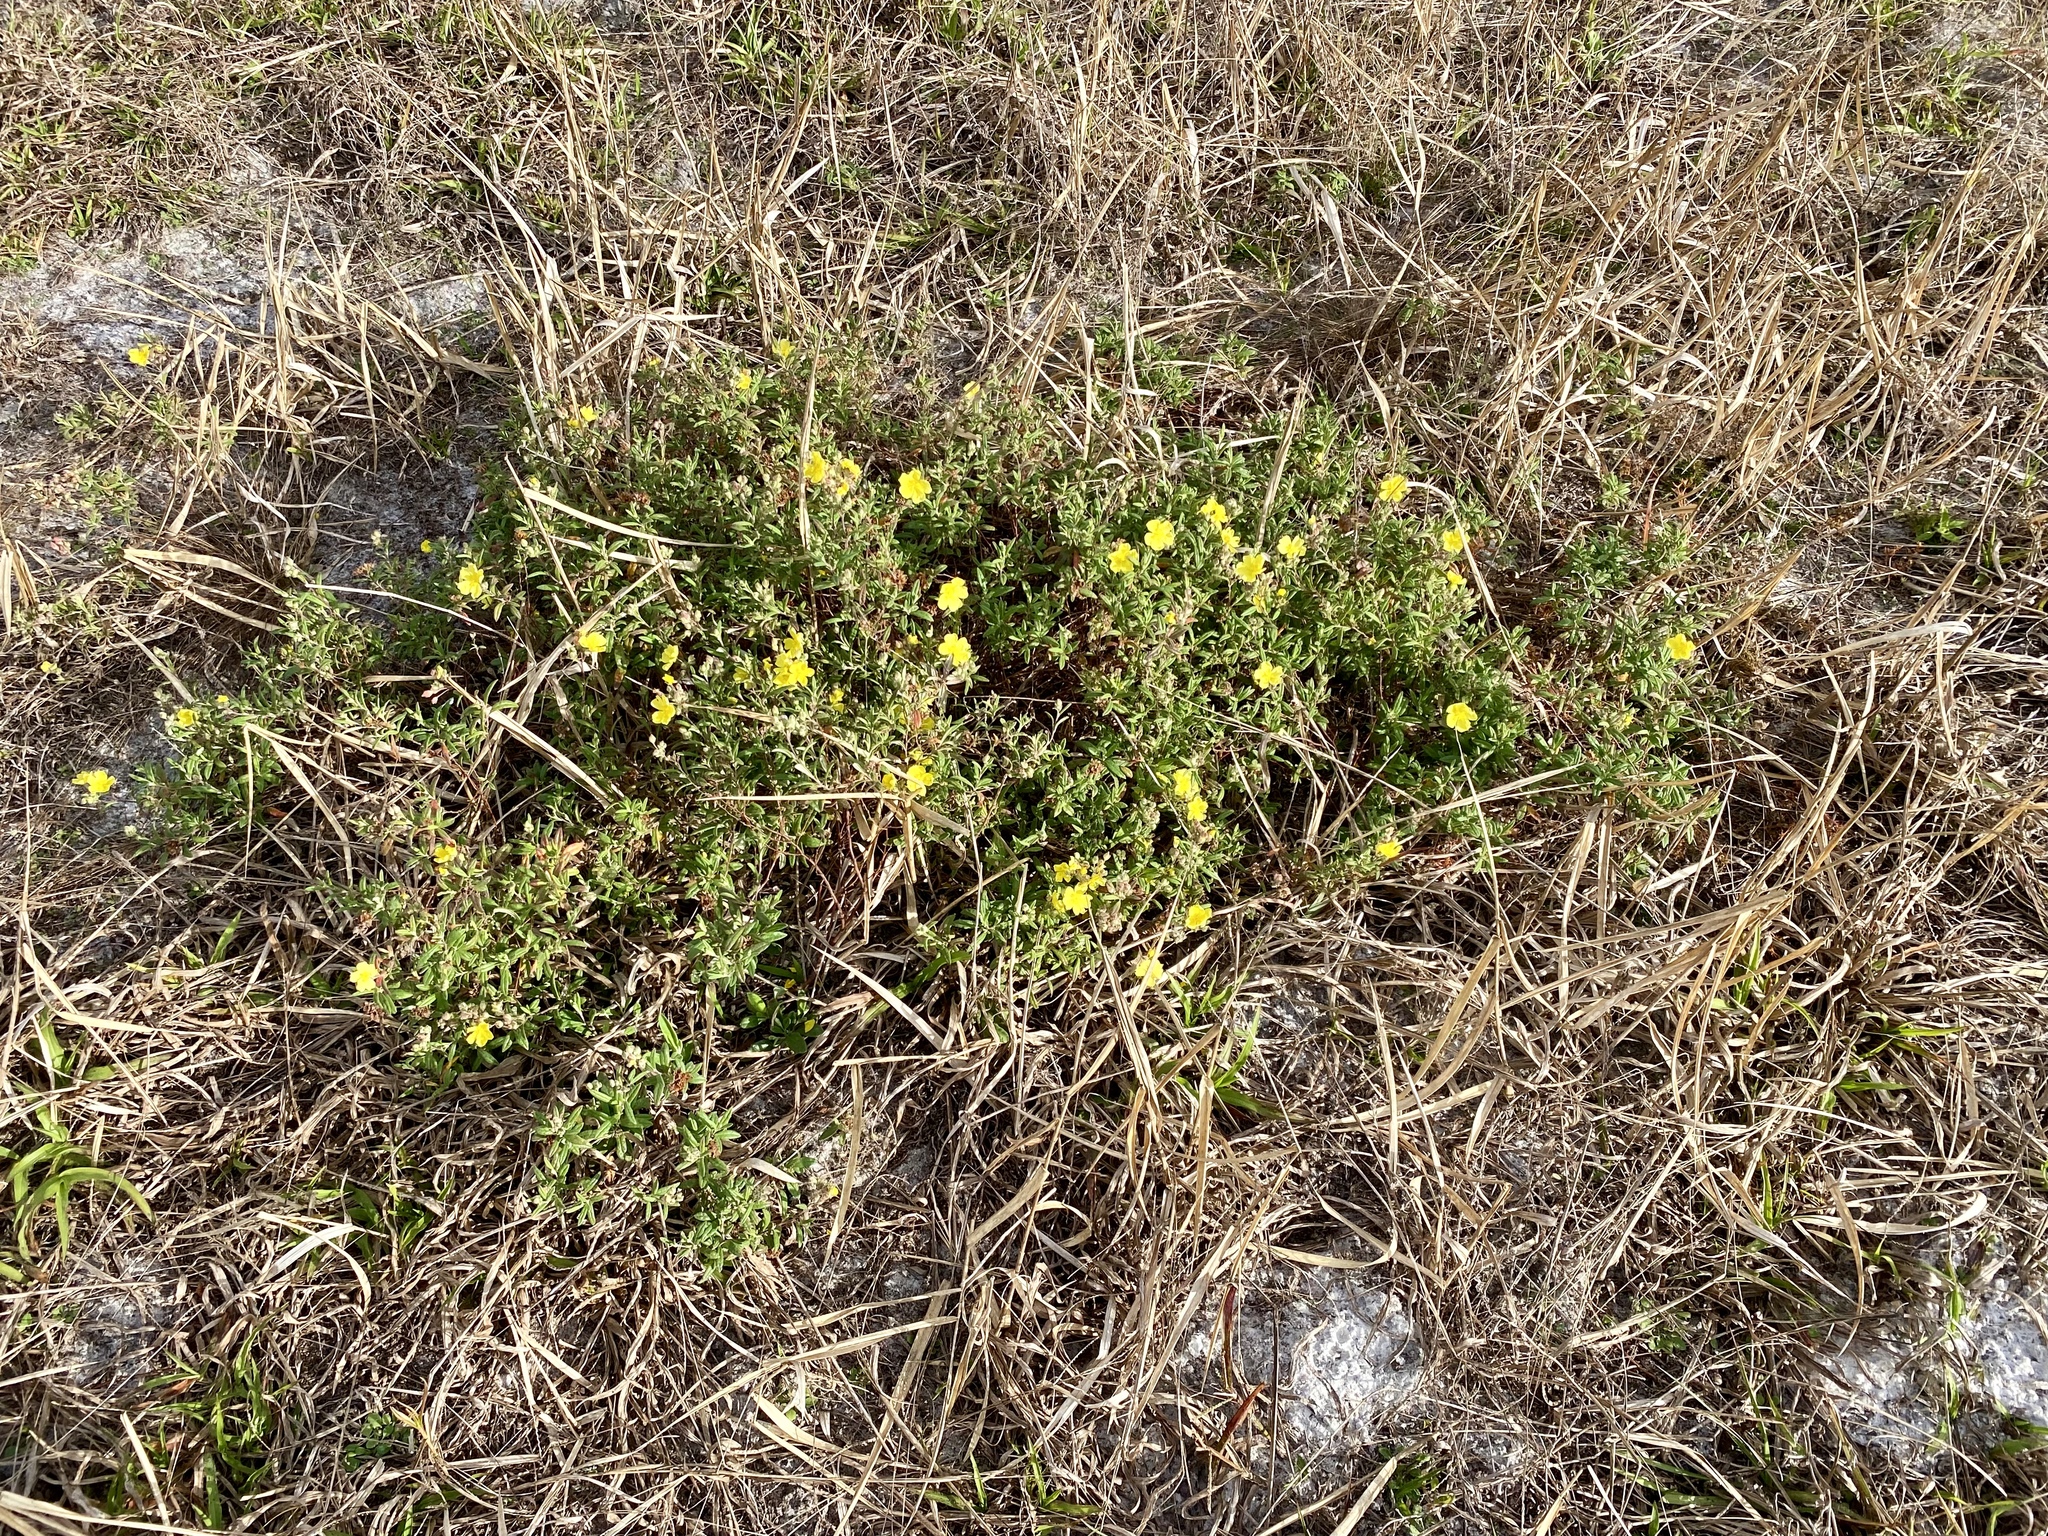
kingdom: Plantae
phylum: Tracheophyta
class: Magnoliopsida
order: Malvales
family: Cistaceae
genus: Crocanthemum
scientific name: Crocanthemum corymbosum
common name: Pinebarren sun-rose
